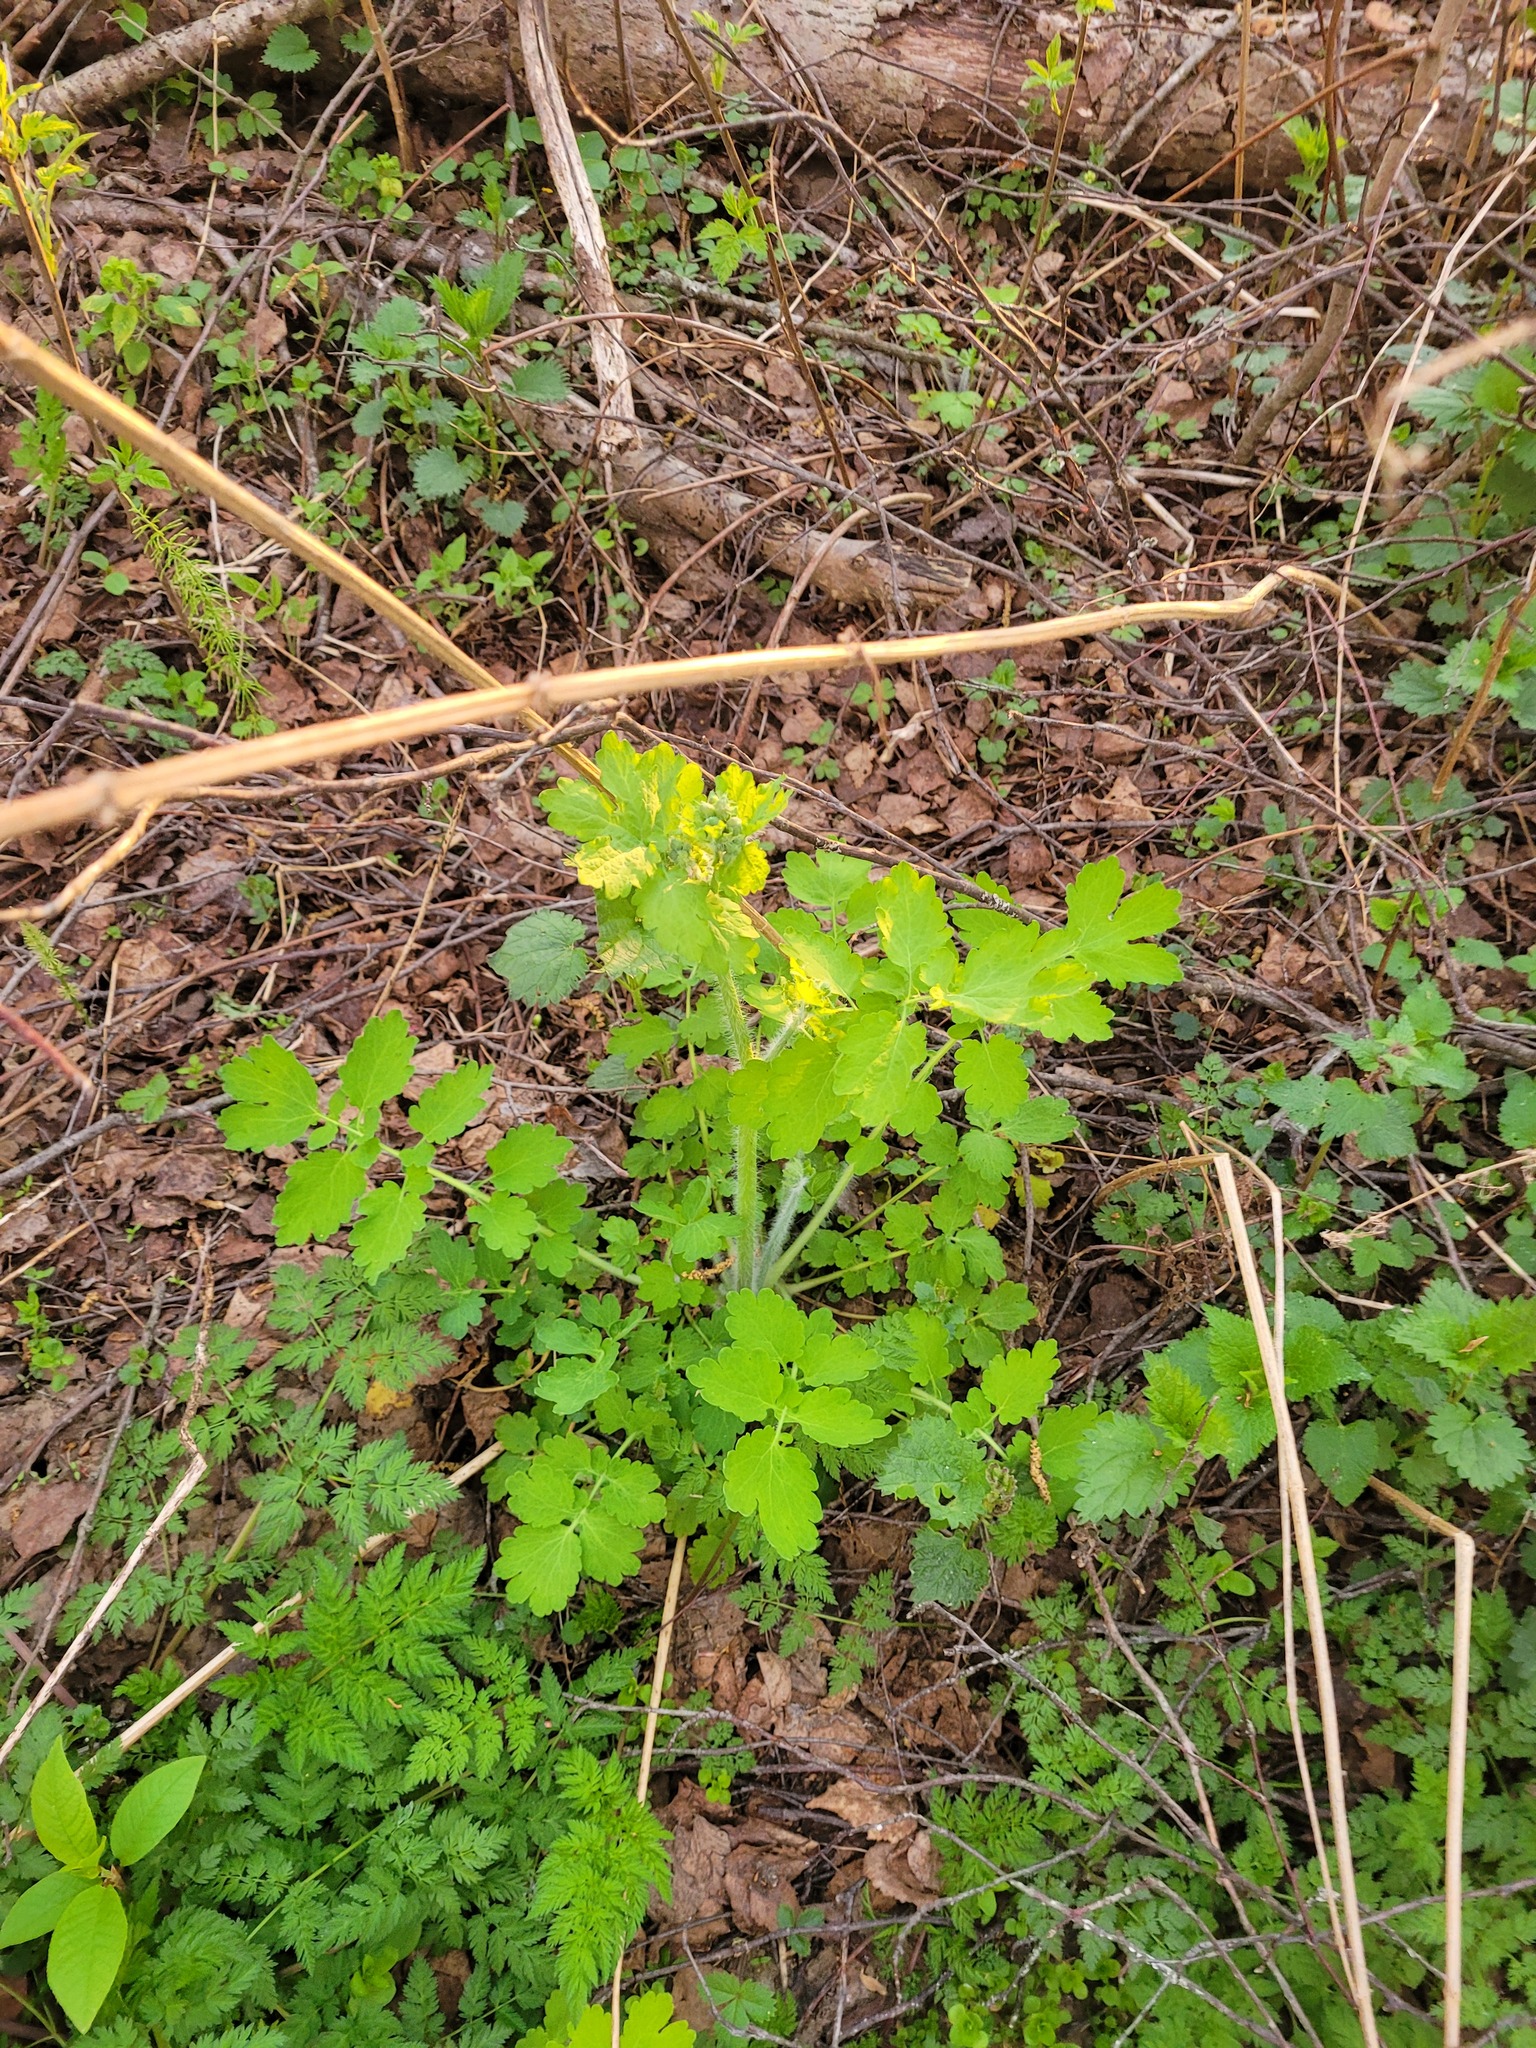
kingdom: Plantae
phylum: Tracheophyta
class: Magnoliopsida
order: Ranunculales
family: Papaveraceae
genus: Chelidonium
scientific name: Chelidonium majus
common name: Greater celandine
